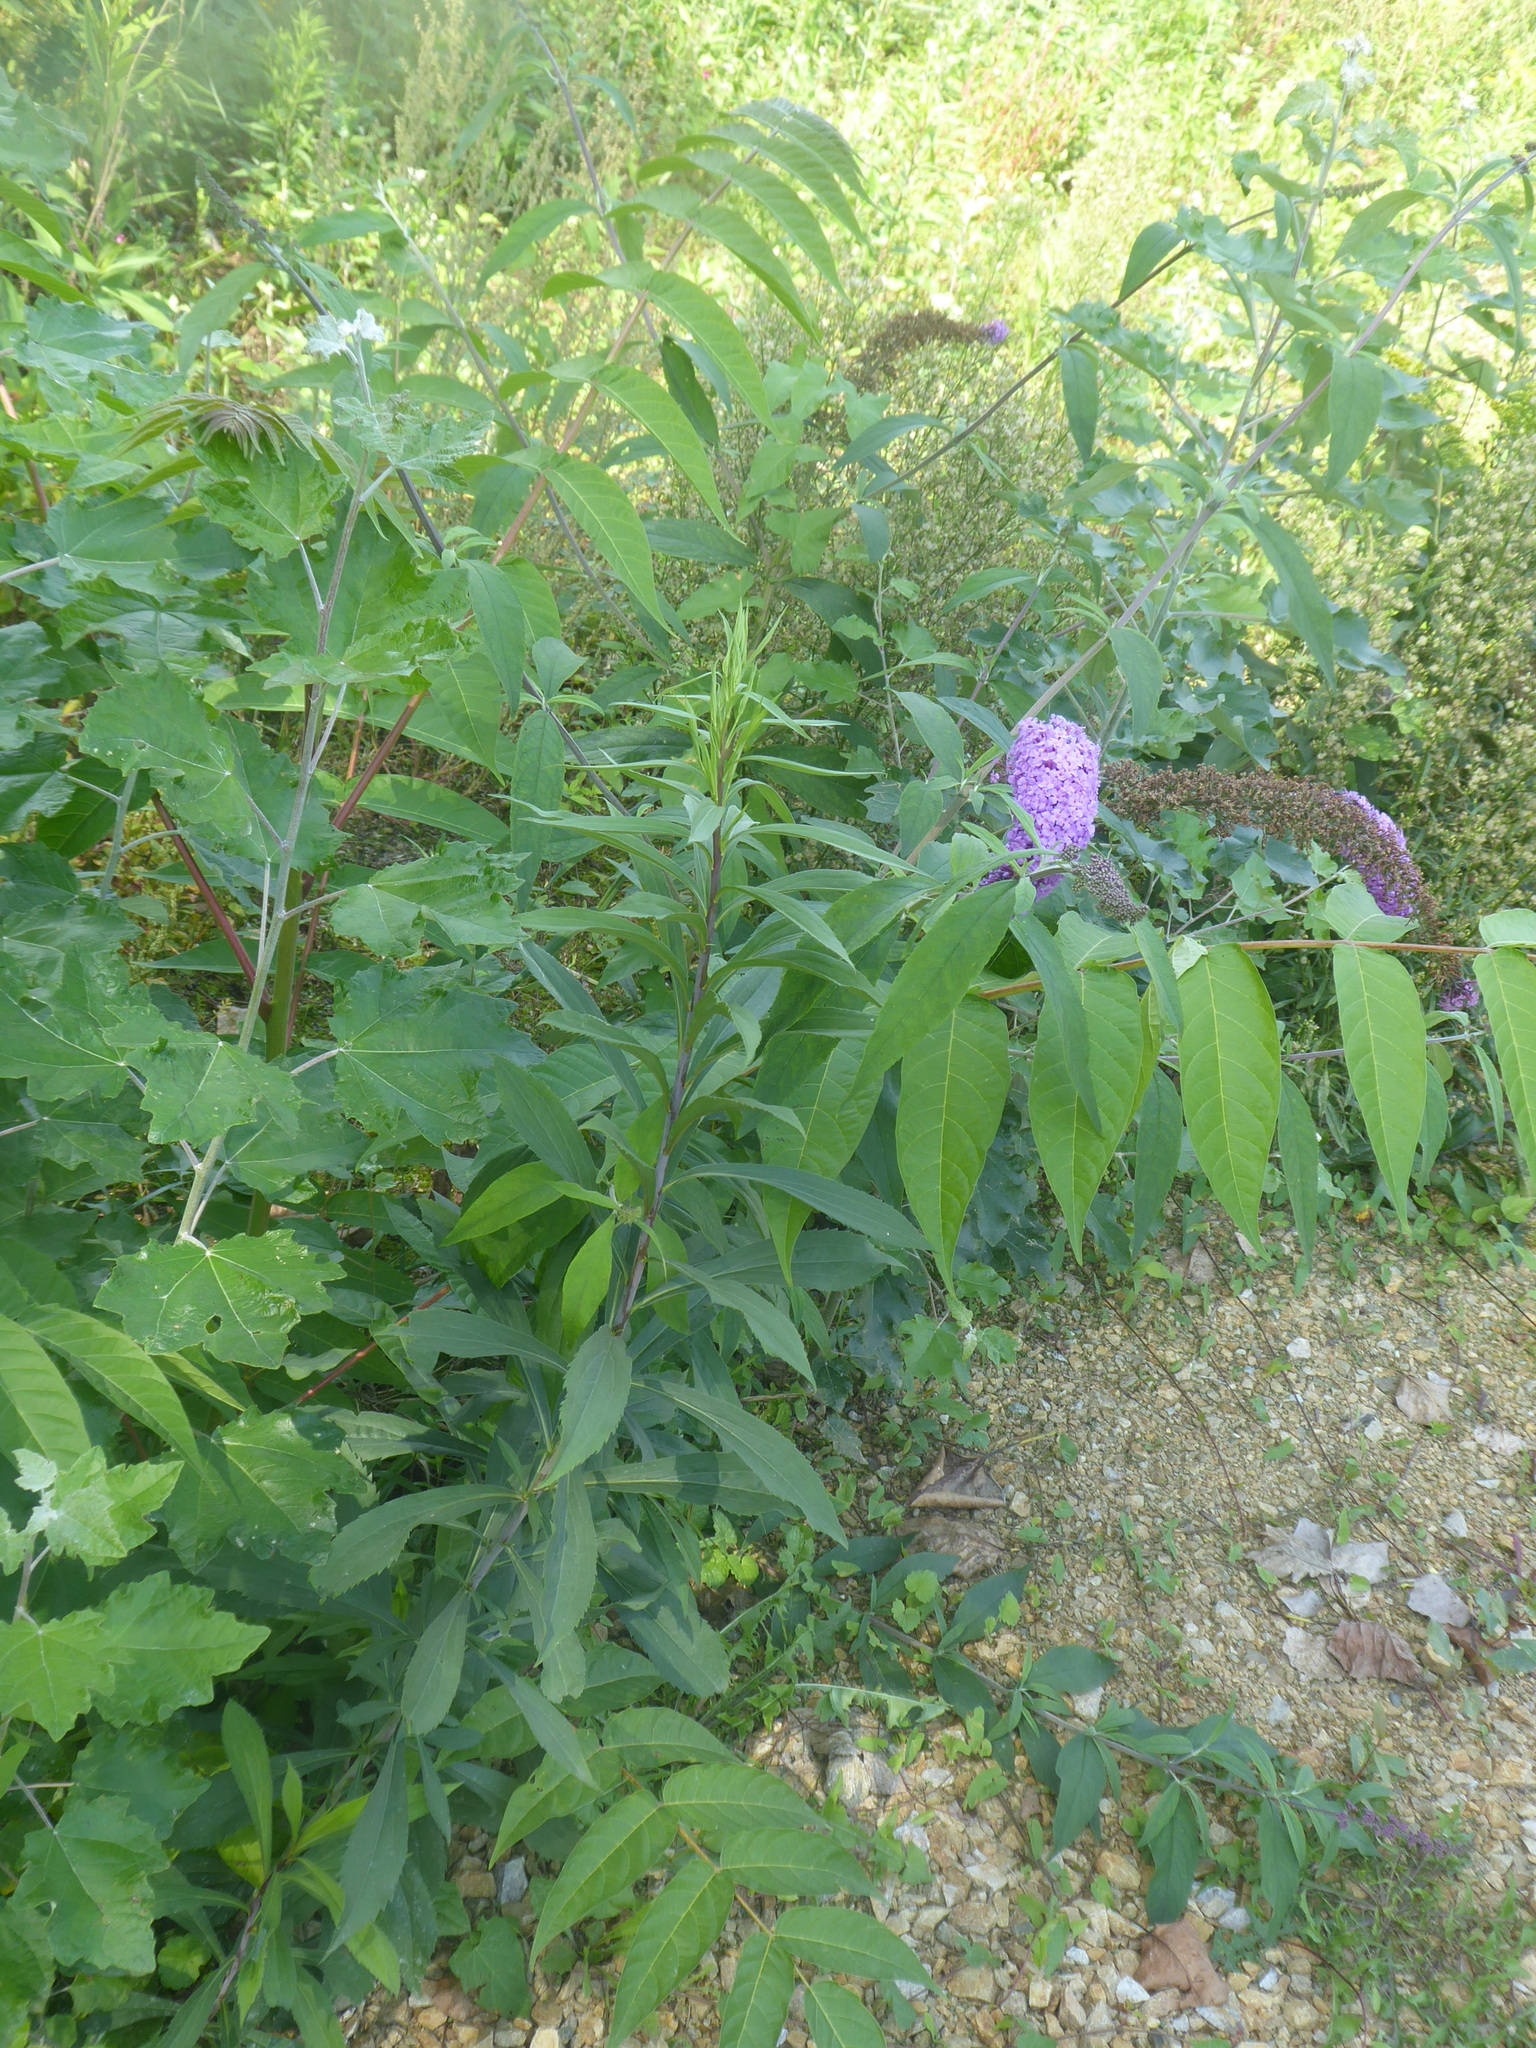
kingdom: Plantae
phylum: Tracheophyta
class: Magnoliopsida
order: Lamiales
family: Scrophulariaceae
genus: Buddleja
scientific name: Buddleja davidii
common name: Butterfly-bush
